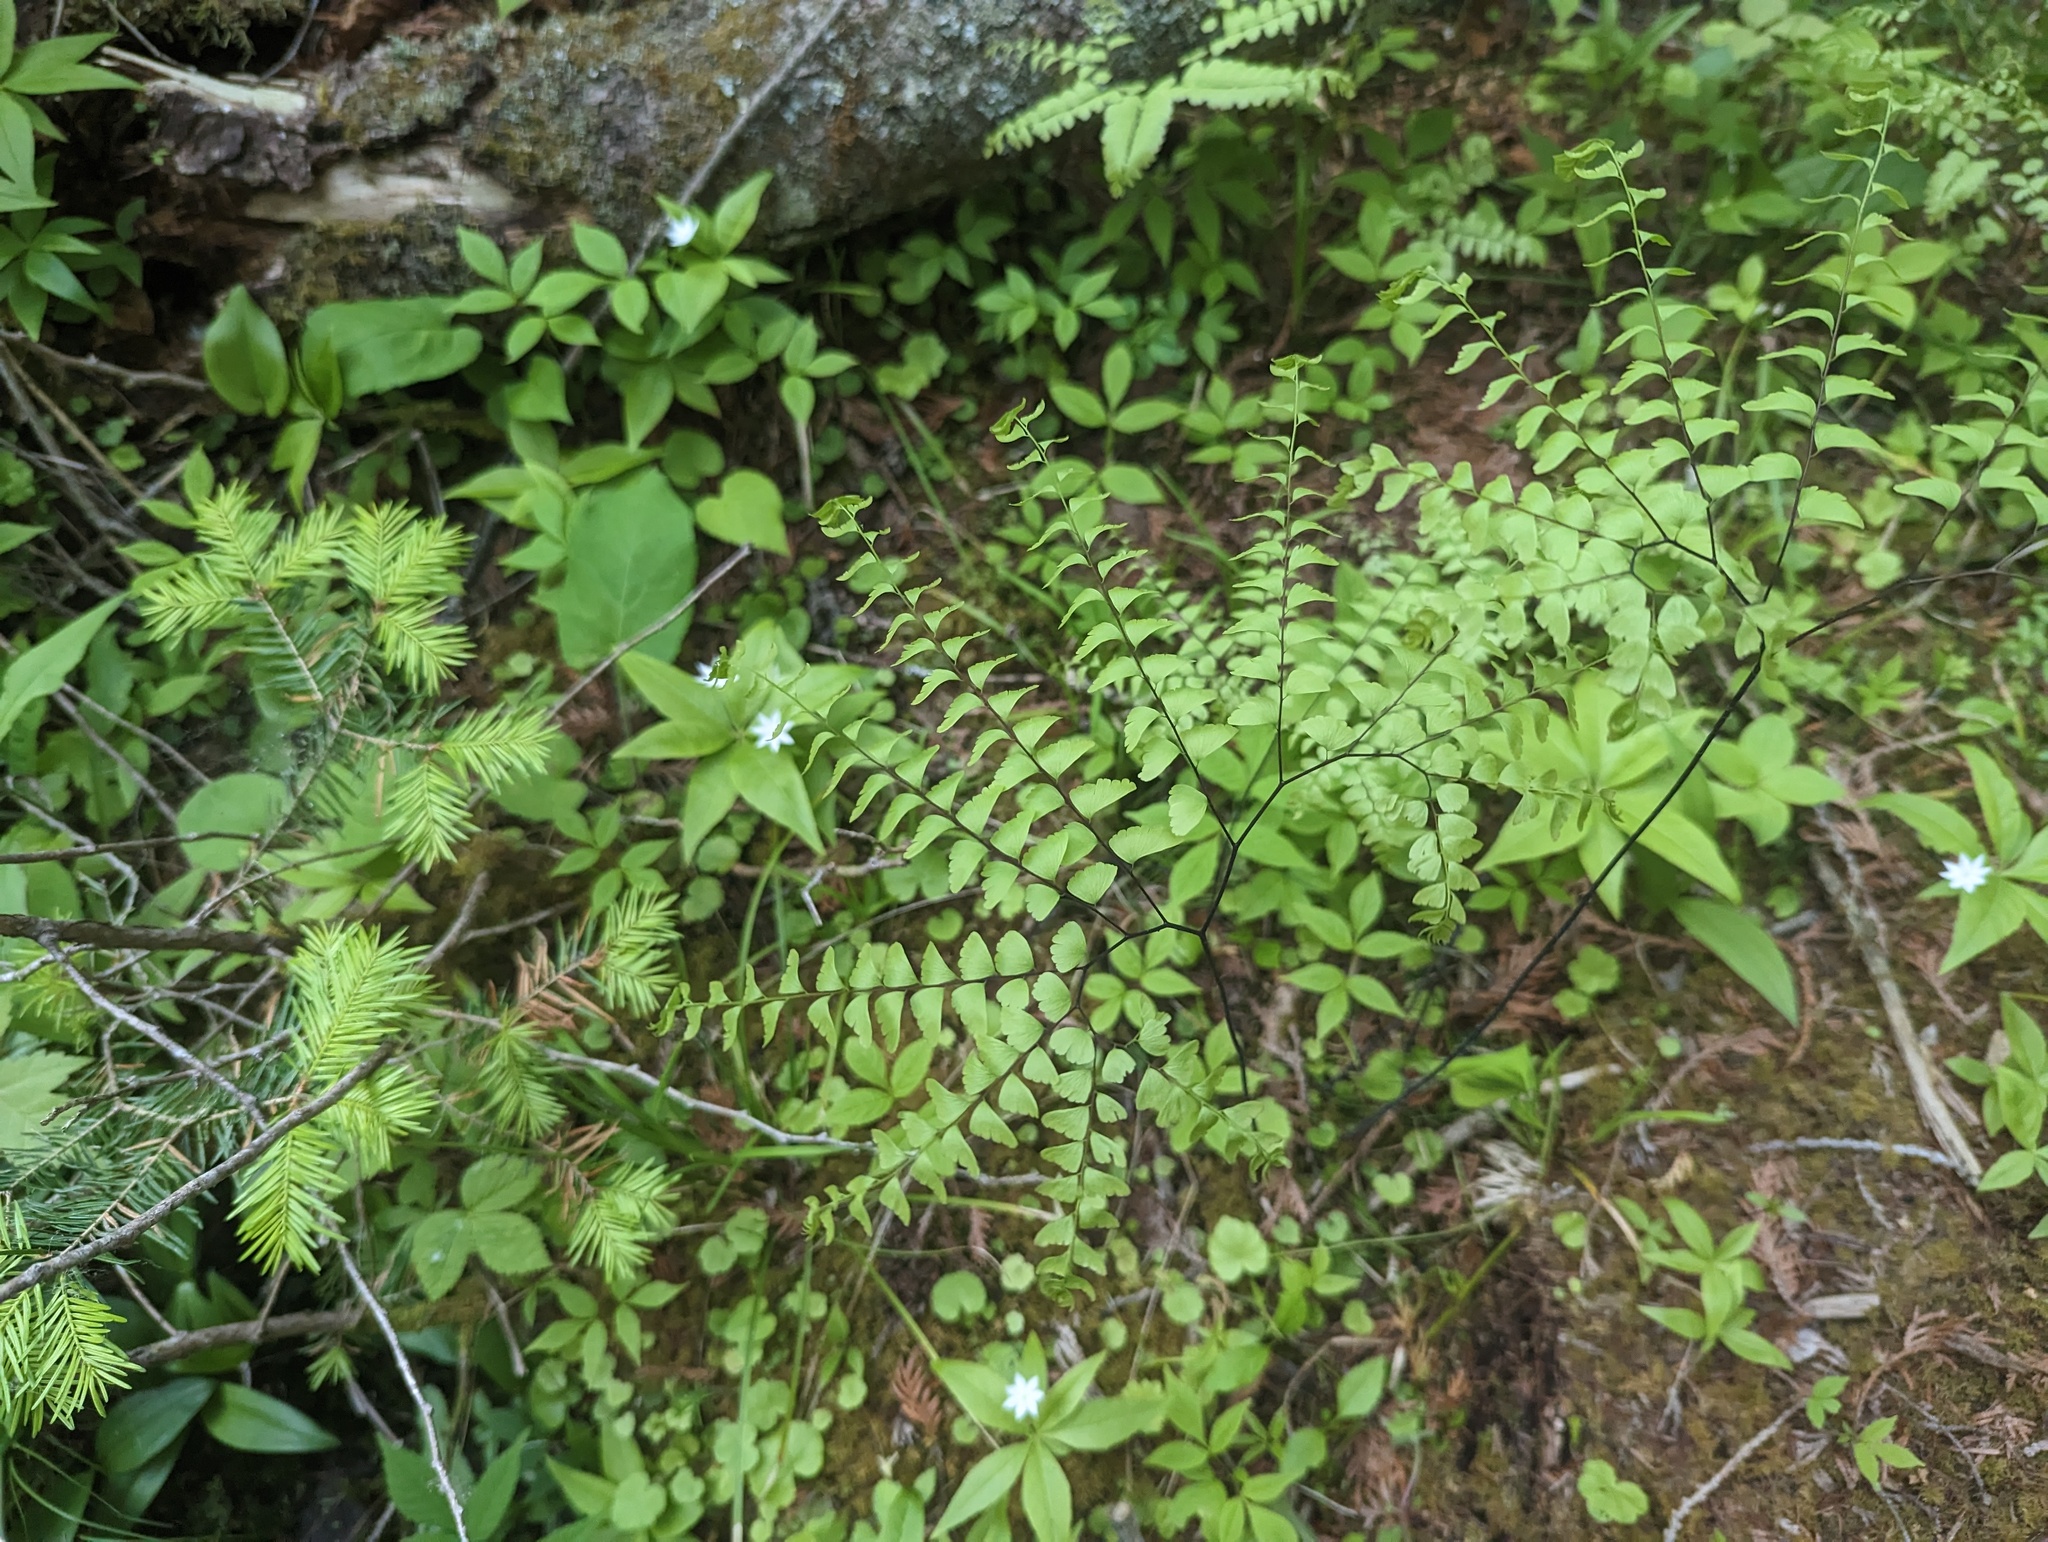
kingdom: Plantae
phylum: Tracheophyta
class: Polypodiopsida
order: Polypodiales
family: Pteridaceae
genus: Adiantum
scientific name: Adiantum pedatum
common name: Five-finger fern
